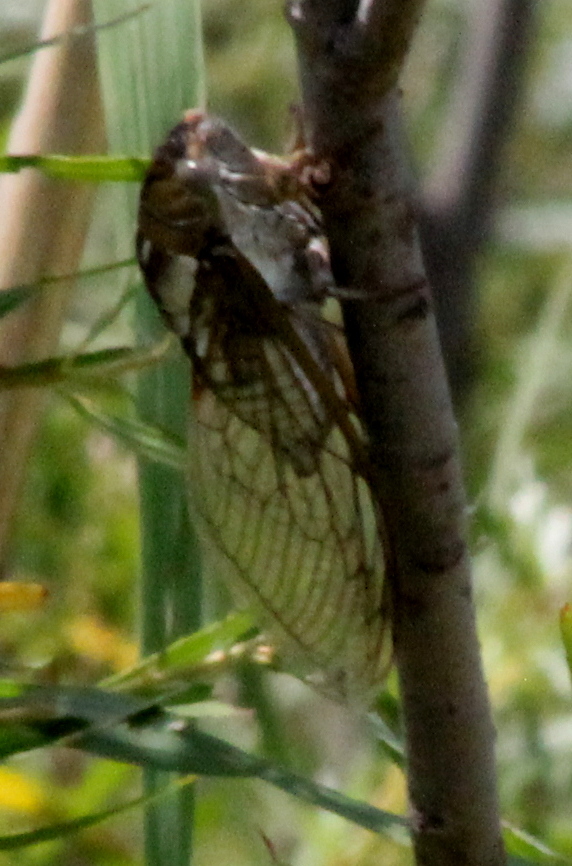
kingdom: Animalia
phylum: Arthropoda
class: Insecta
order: Hemiptera
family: Cicadidae
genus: Megatibicen
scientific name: Megatibicen dealbatus
